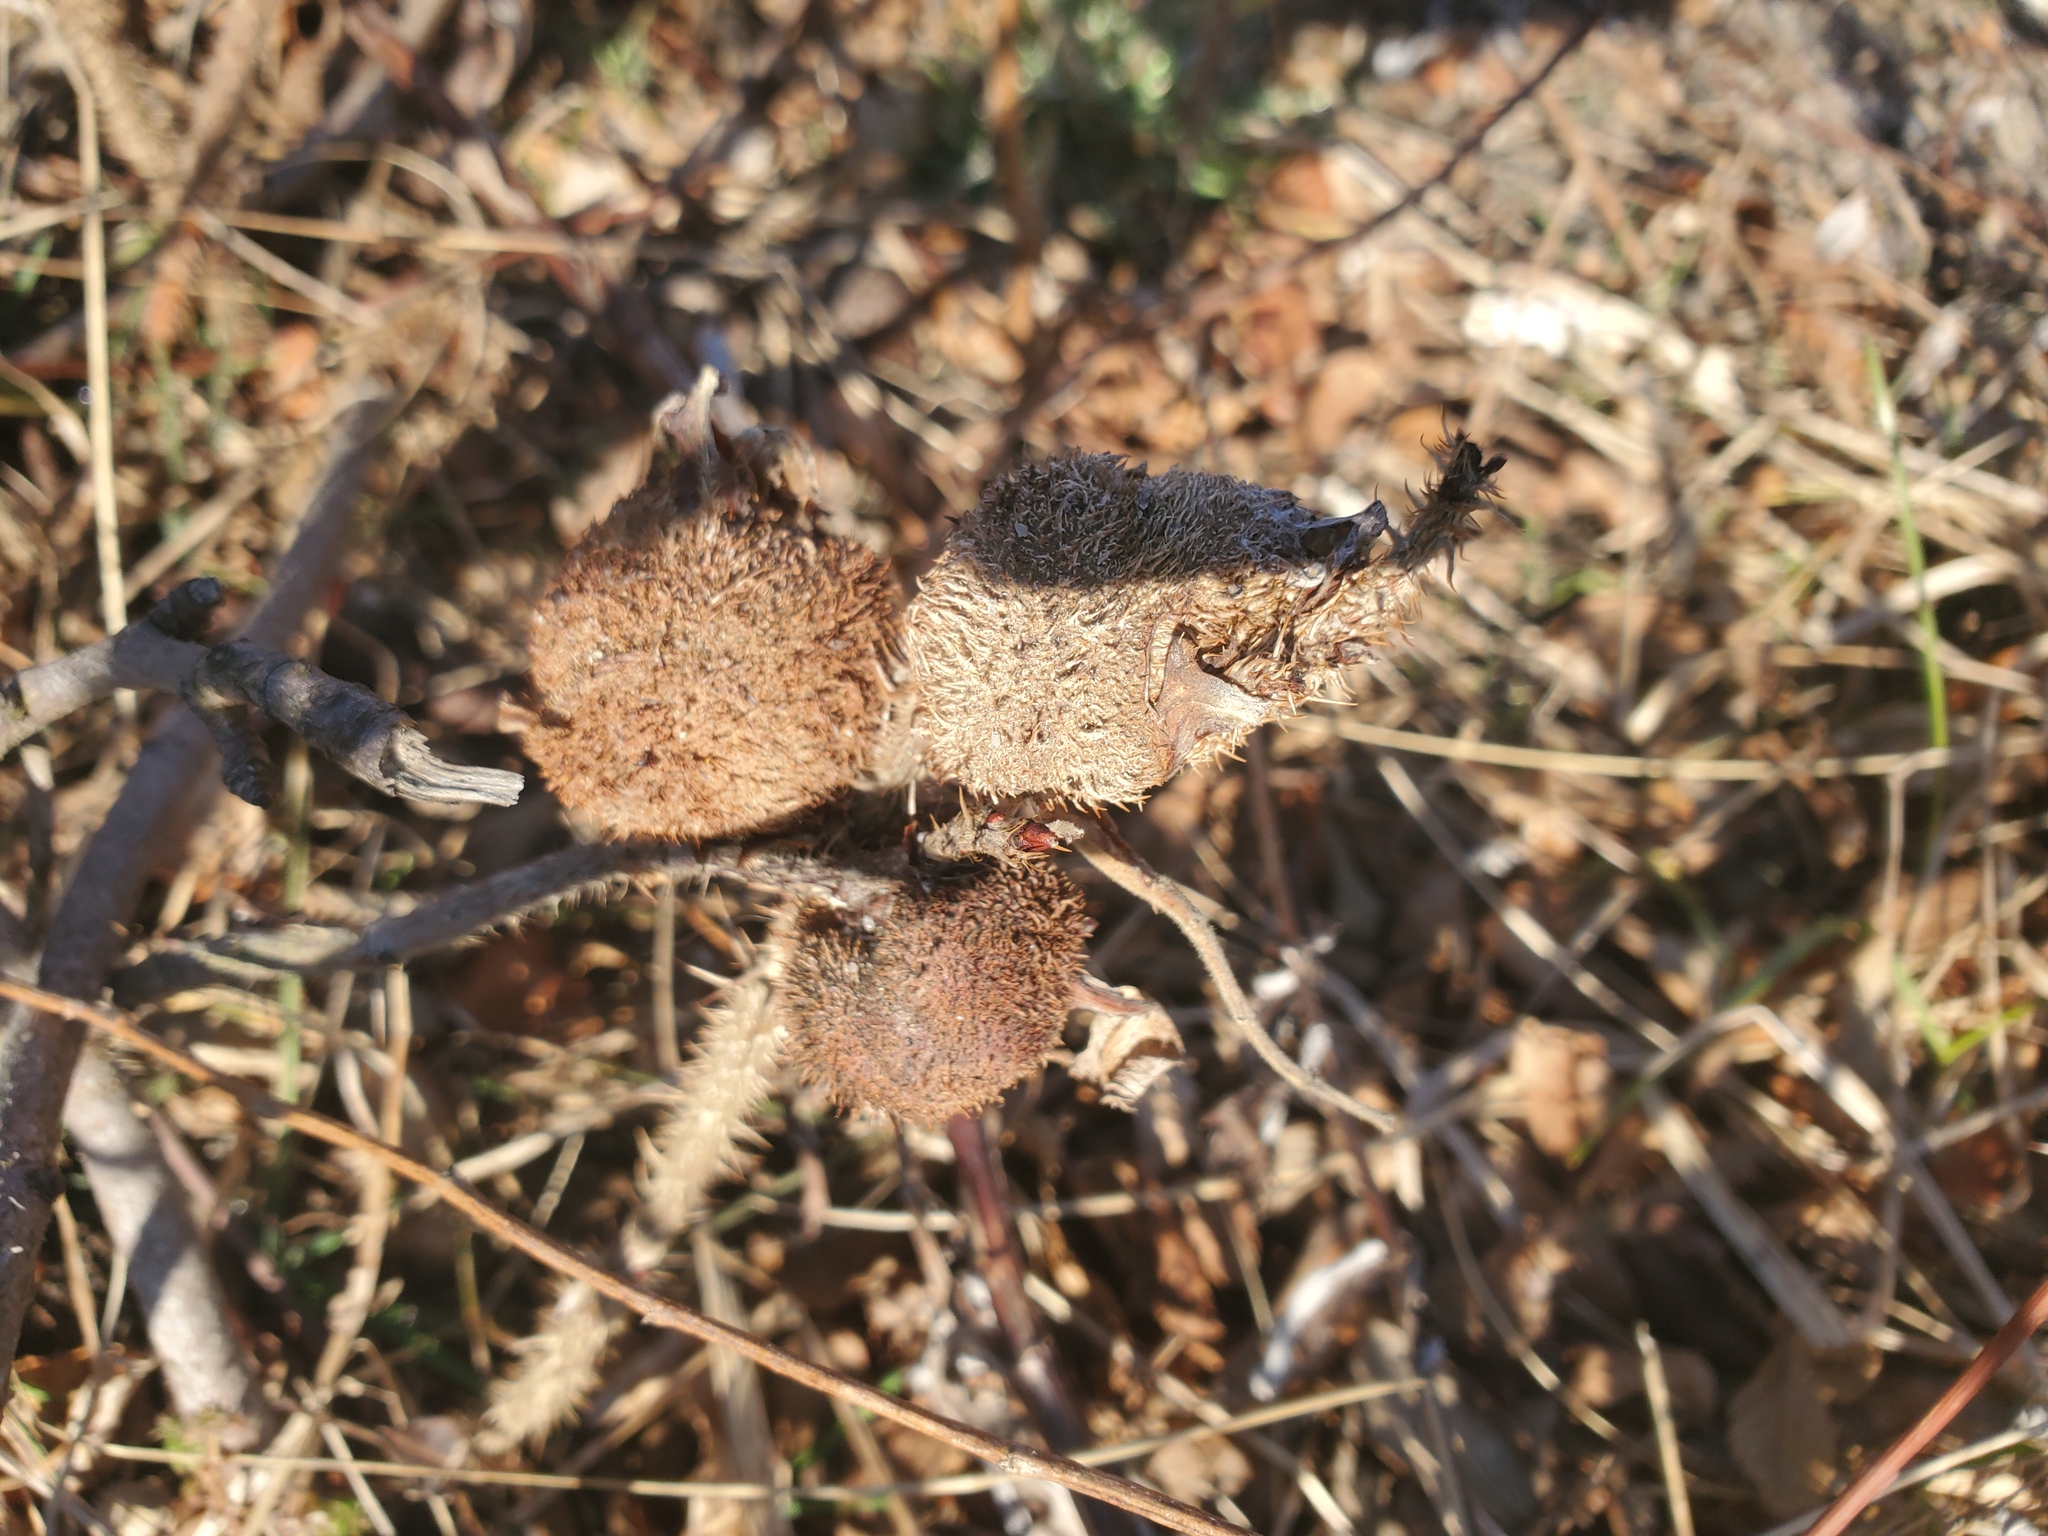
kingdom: Animalia
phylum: Arthropoda
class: Insecta
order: Hymenoptera
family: Cynipidae
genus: Diplolepis
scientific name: Diplolepis spinosa
